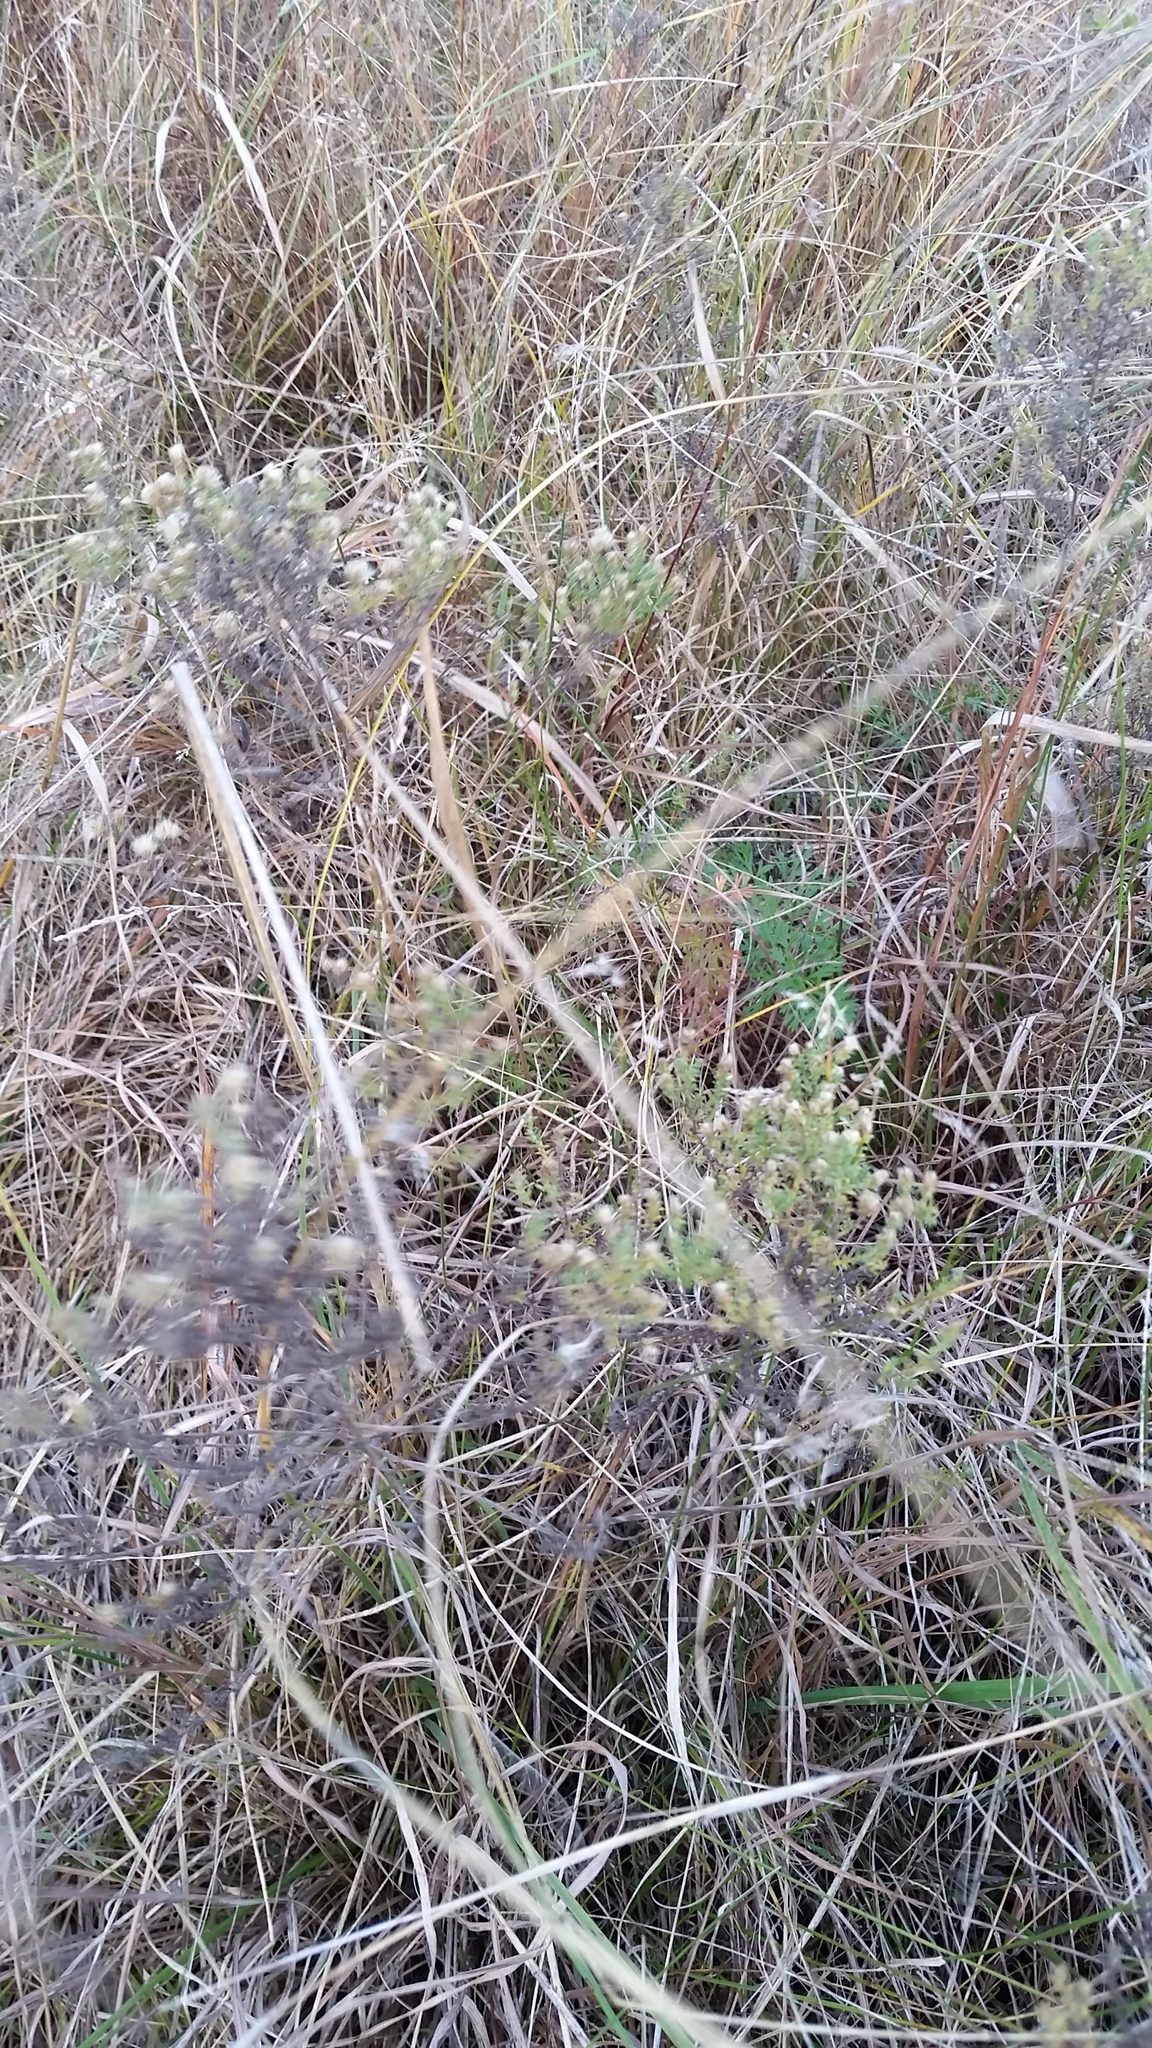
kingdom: Plantae
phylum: Tracheophyta
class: Magnoliopsida
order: Asterales
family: Asteraceae
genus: Symphyotrichum
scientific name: Symphyotrichum ericoides
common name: Heath aster
